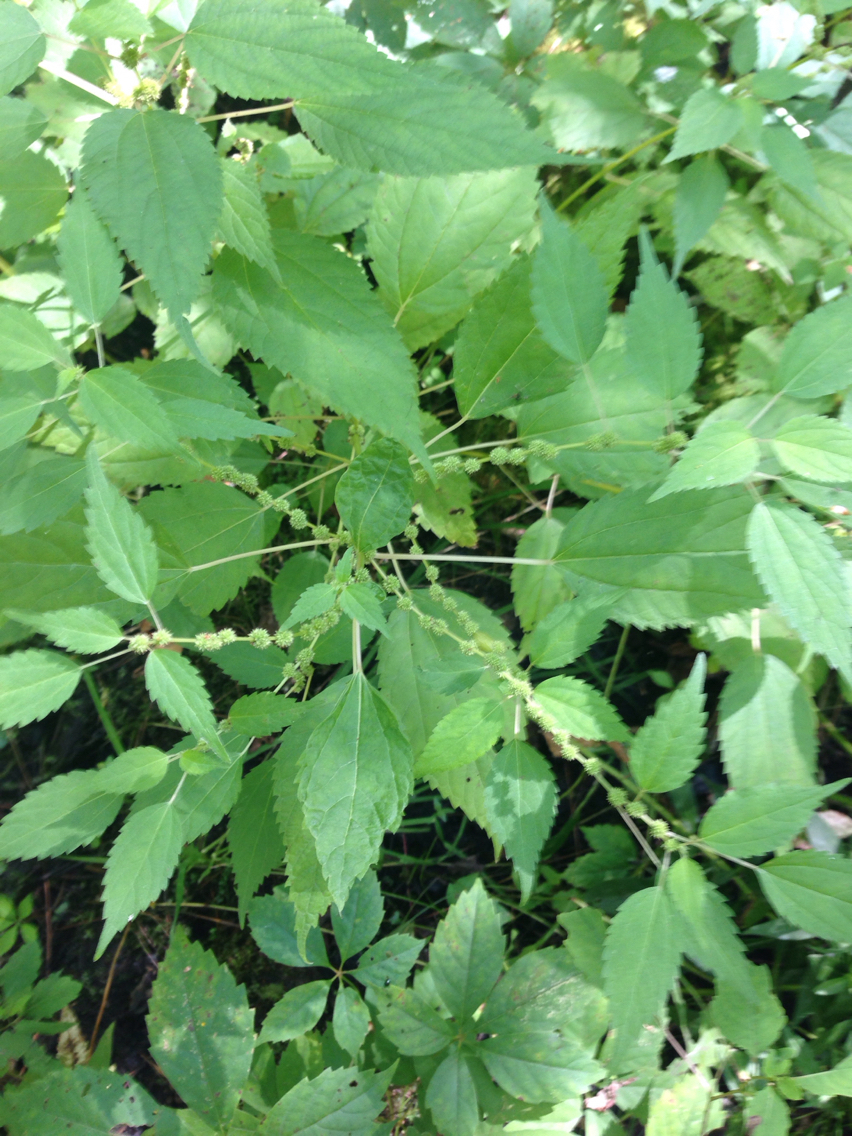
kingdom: Plantae
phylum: Tracheophyta
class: Magnoliopsida
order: Rosales
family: Urticaceae
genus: Boehmeria
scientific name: Boehmeria cylindrica
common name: Bog-hemp
